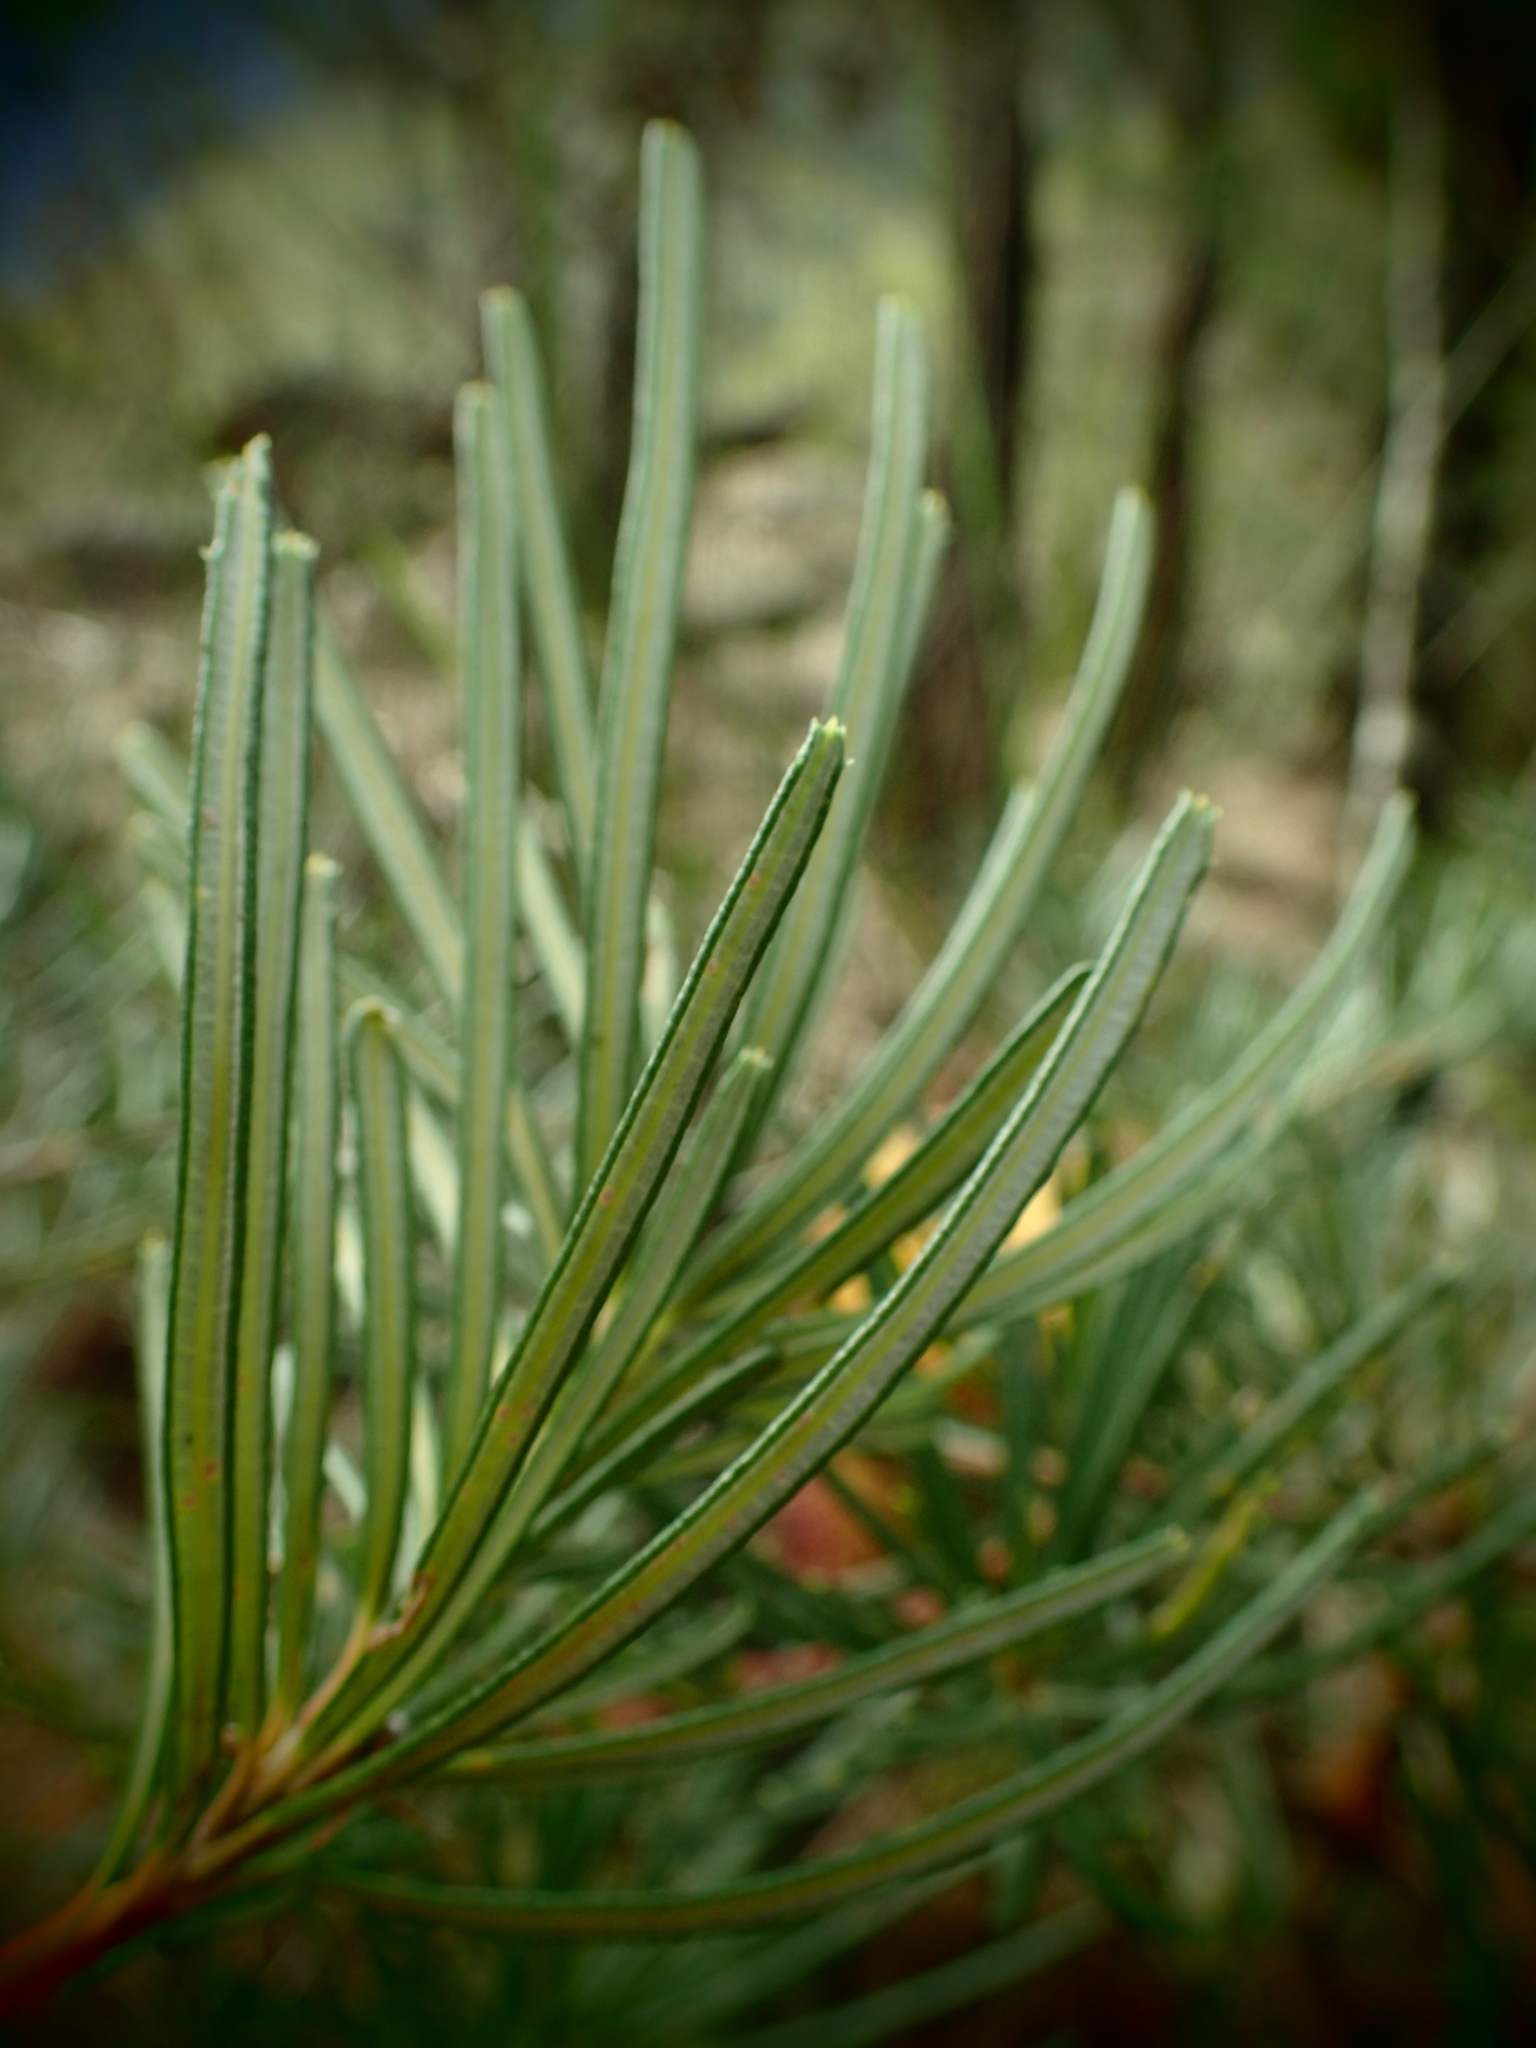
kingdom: Plantae
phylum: Tracheophyta
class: Magnoliopsida
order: Proteales
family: Proteaceae
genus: Banksia
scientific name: Banksia spinulosa
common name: Hairpin banksia
